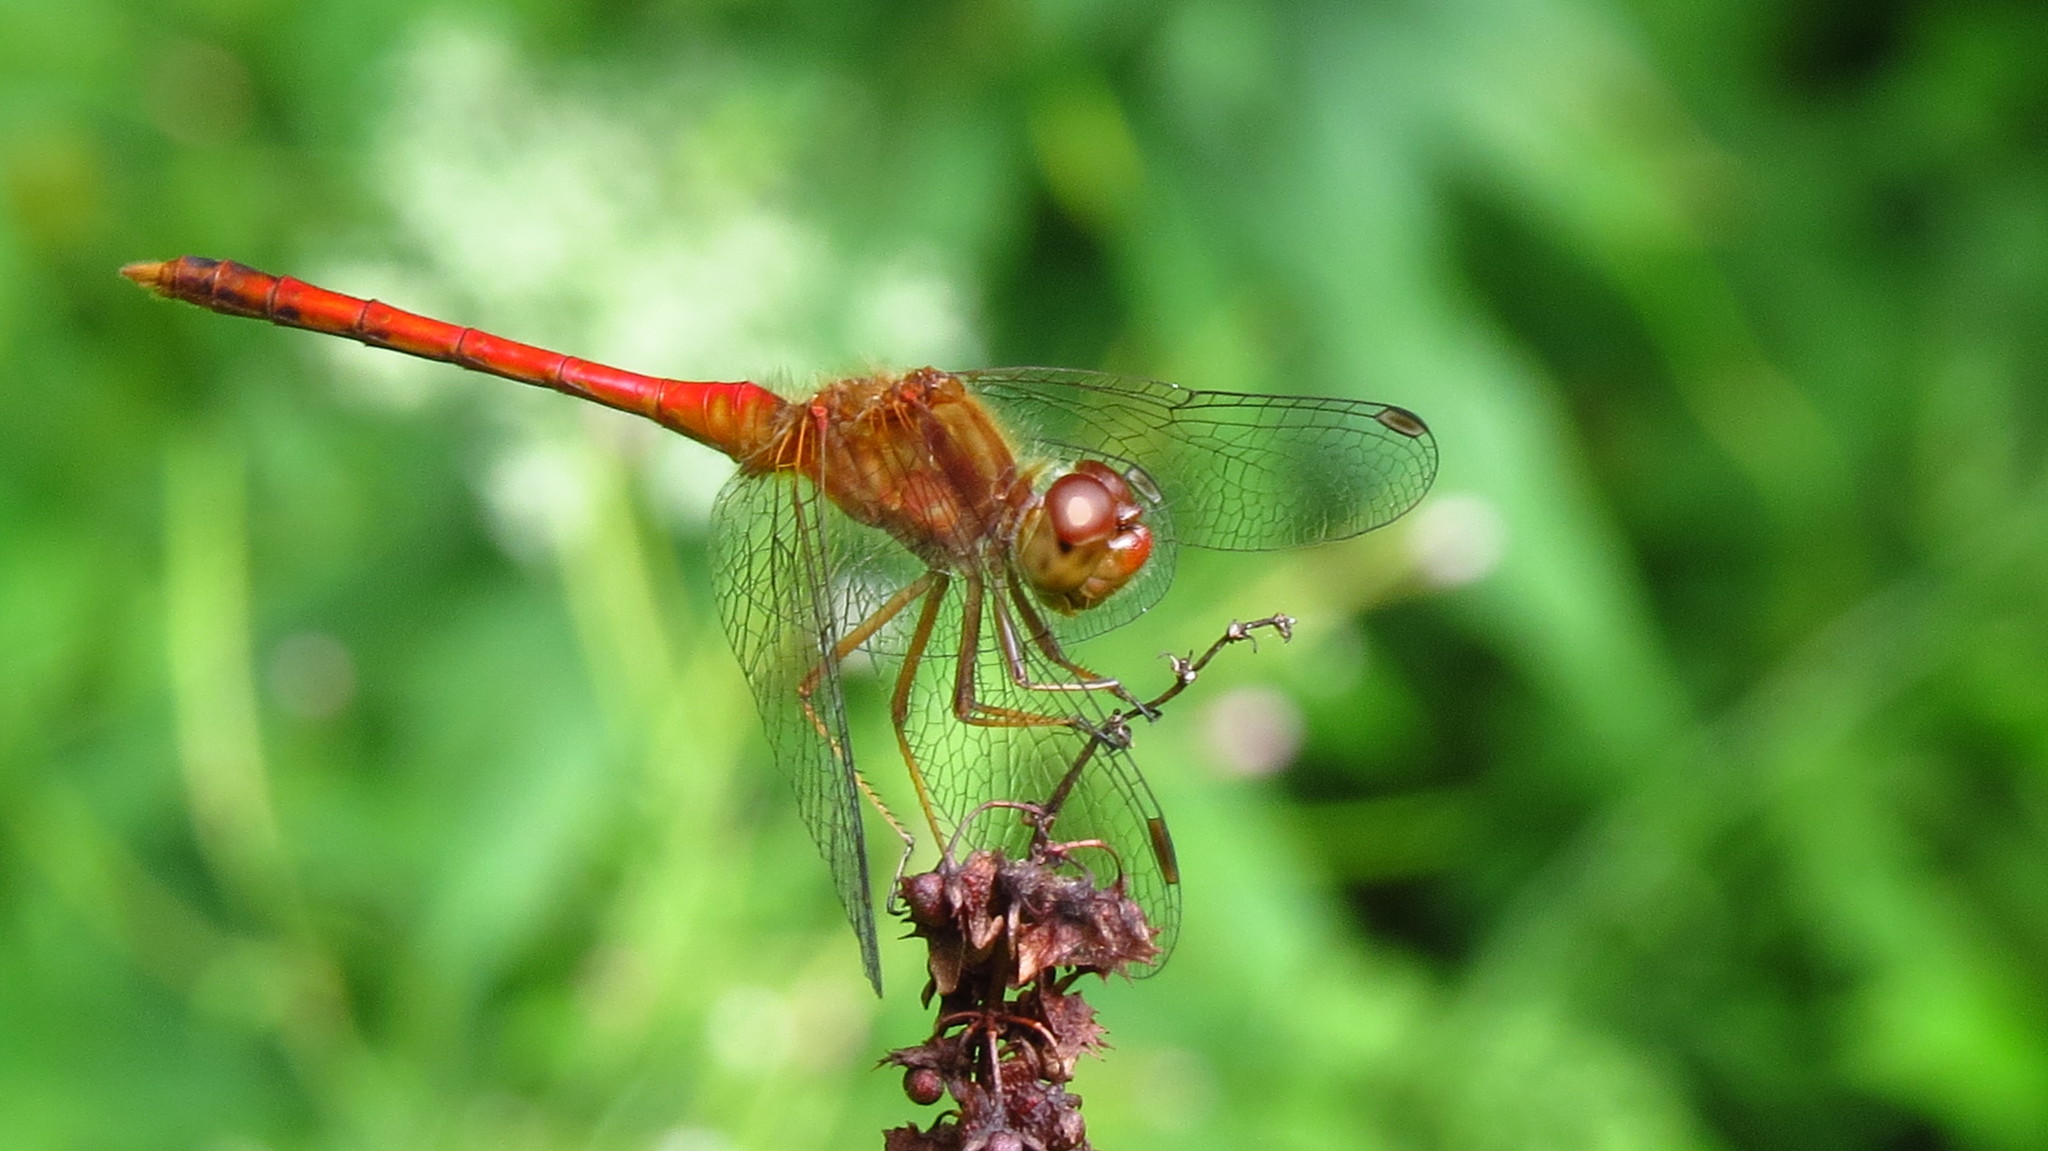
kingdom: Animalia
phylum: Arthropoda
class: Insecta
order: Odonata
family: Libellulidae
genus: Sympetrum
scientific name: Sympetrum vicinum
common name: Autumn meadowhawk
